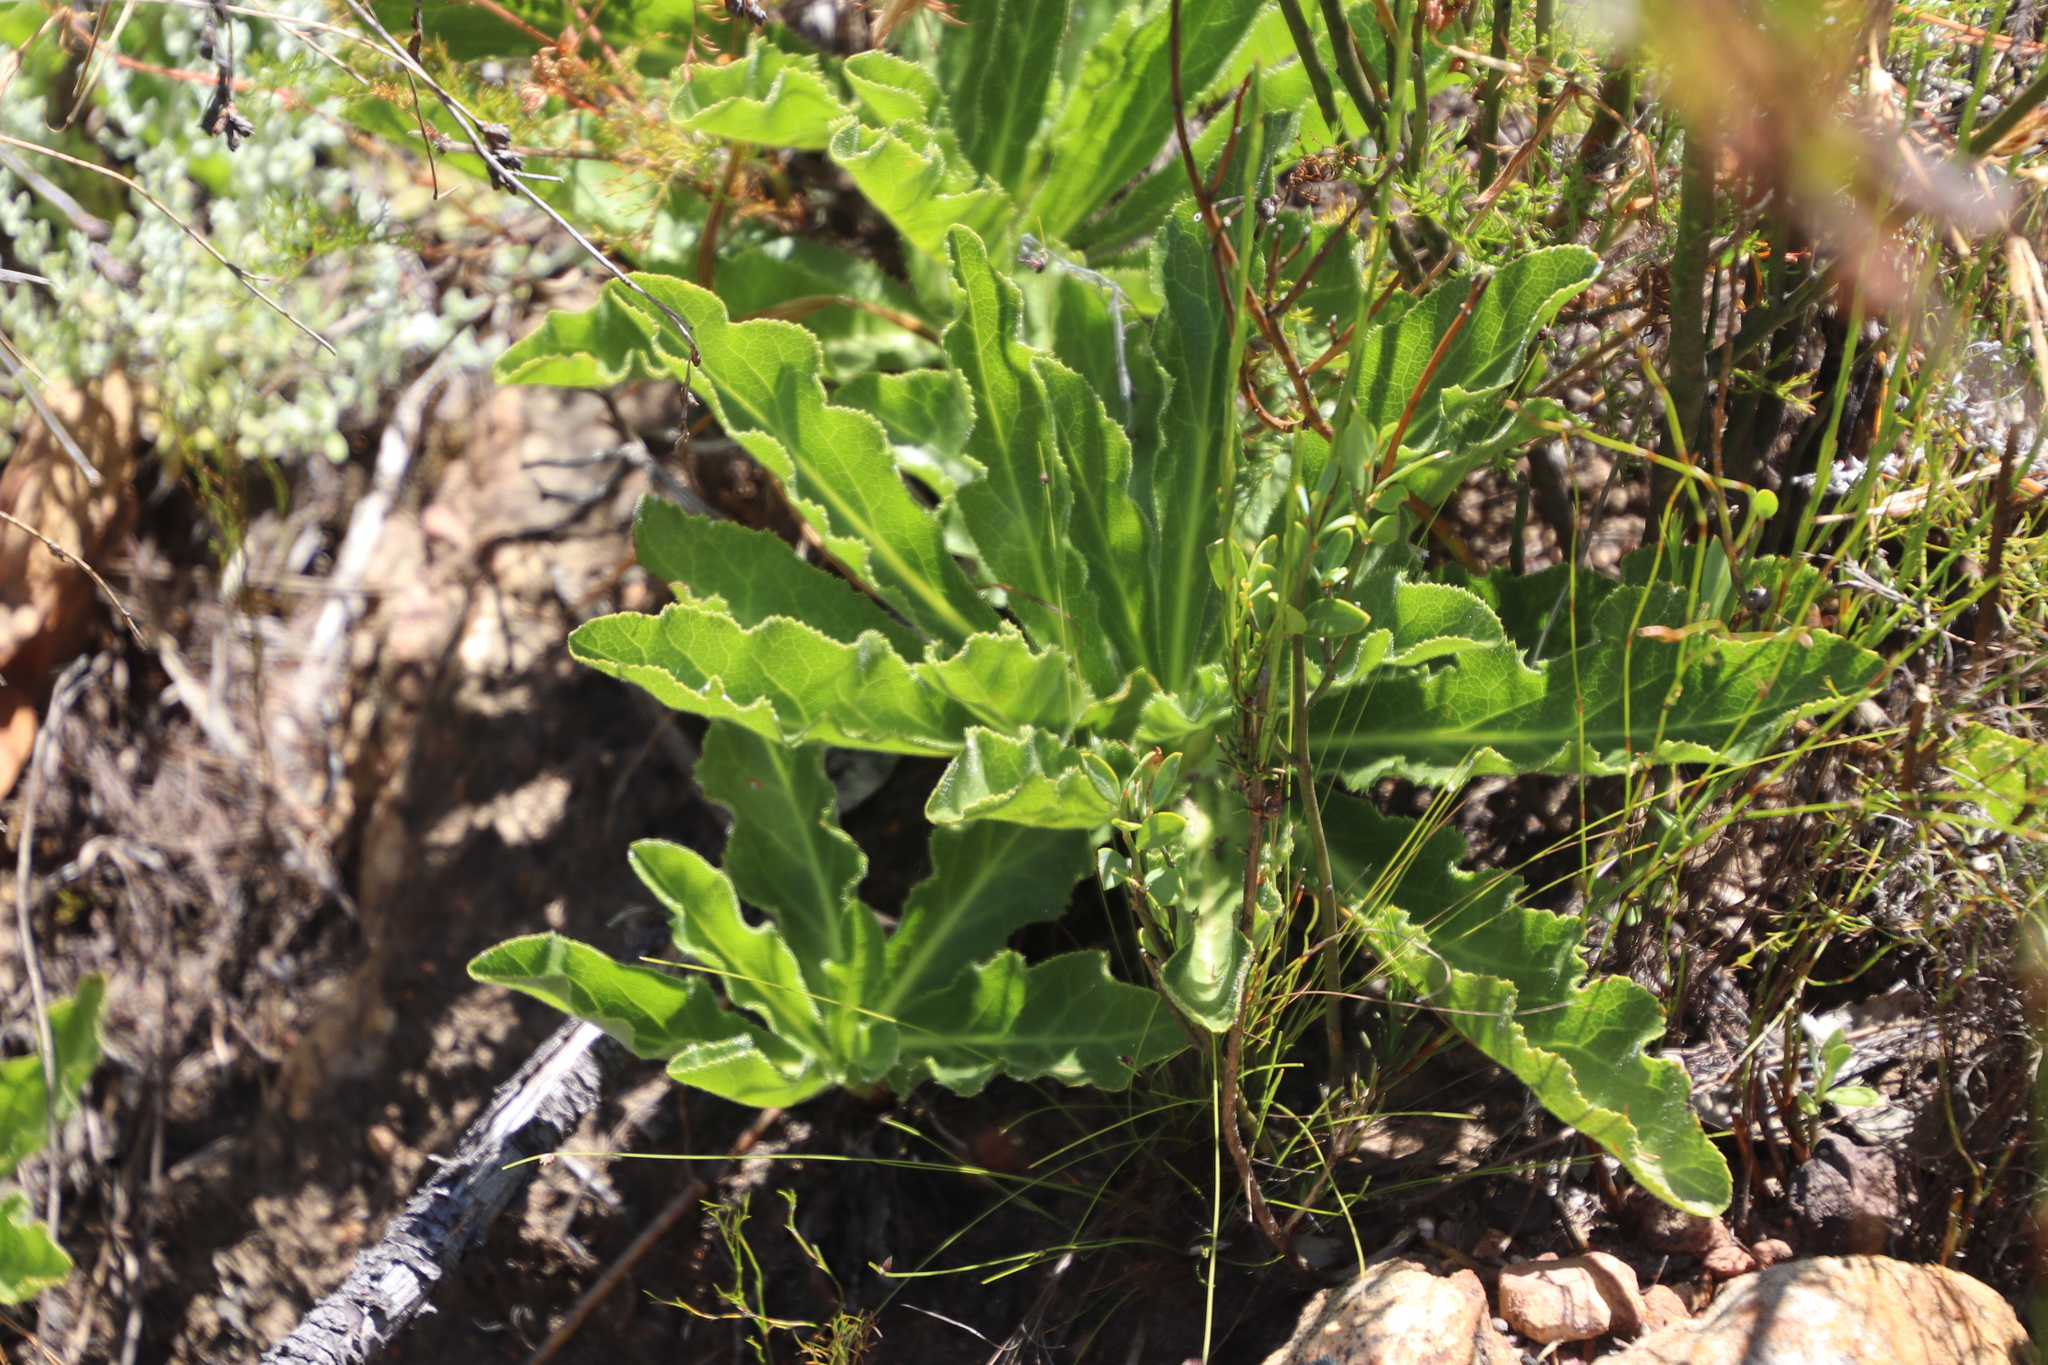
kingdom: Plantae
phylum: Tracheophyta
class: Magnoliopsida
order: Apiales
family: Apiaceae
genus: Lichtensteinia
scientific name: Lichtensteinia trifida
